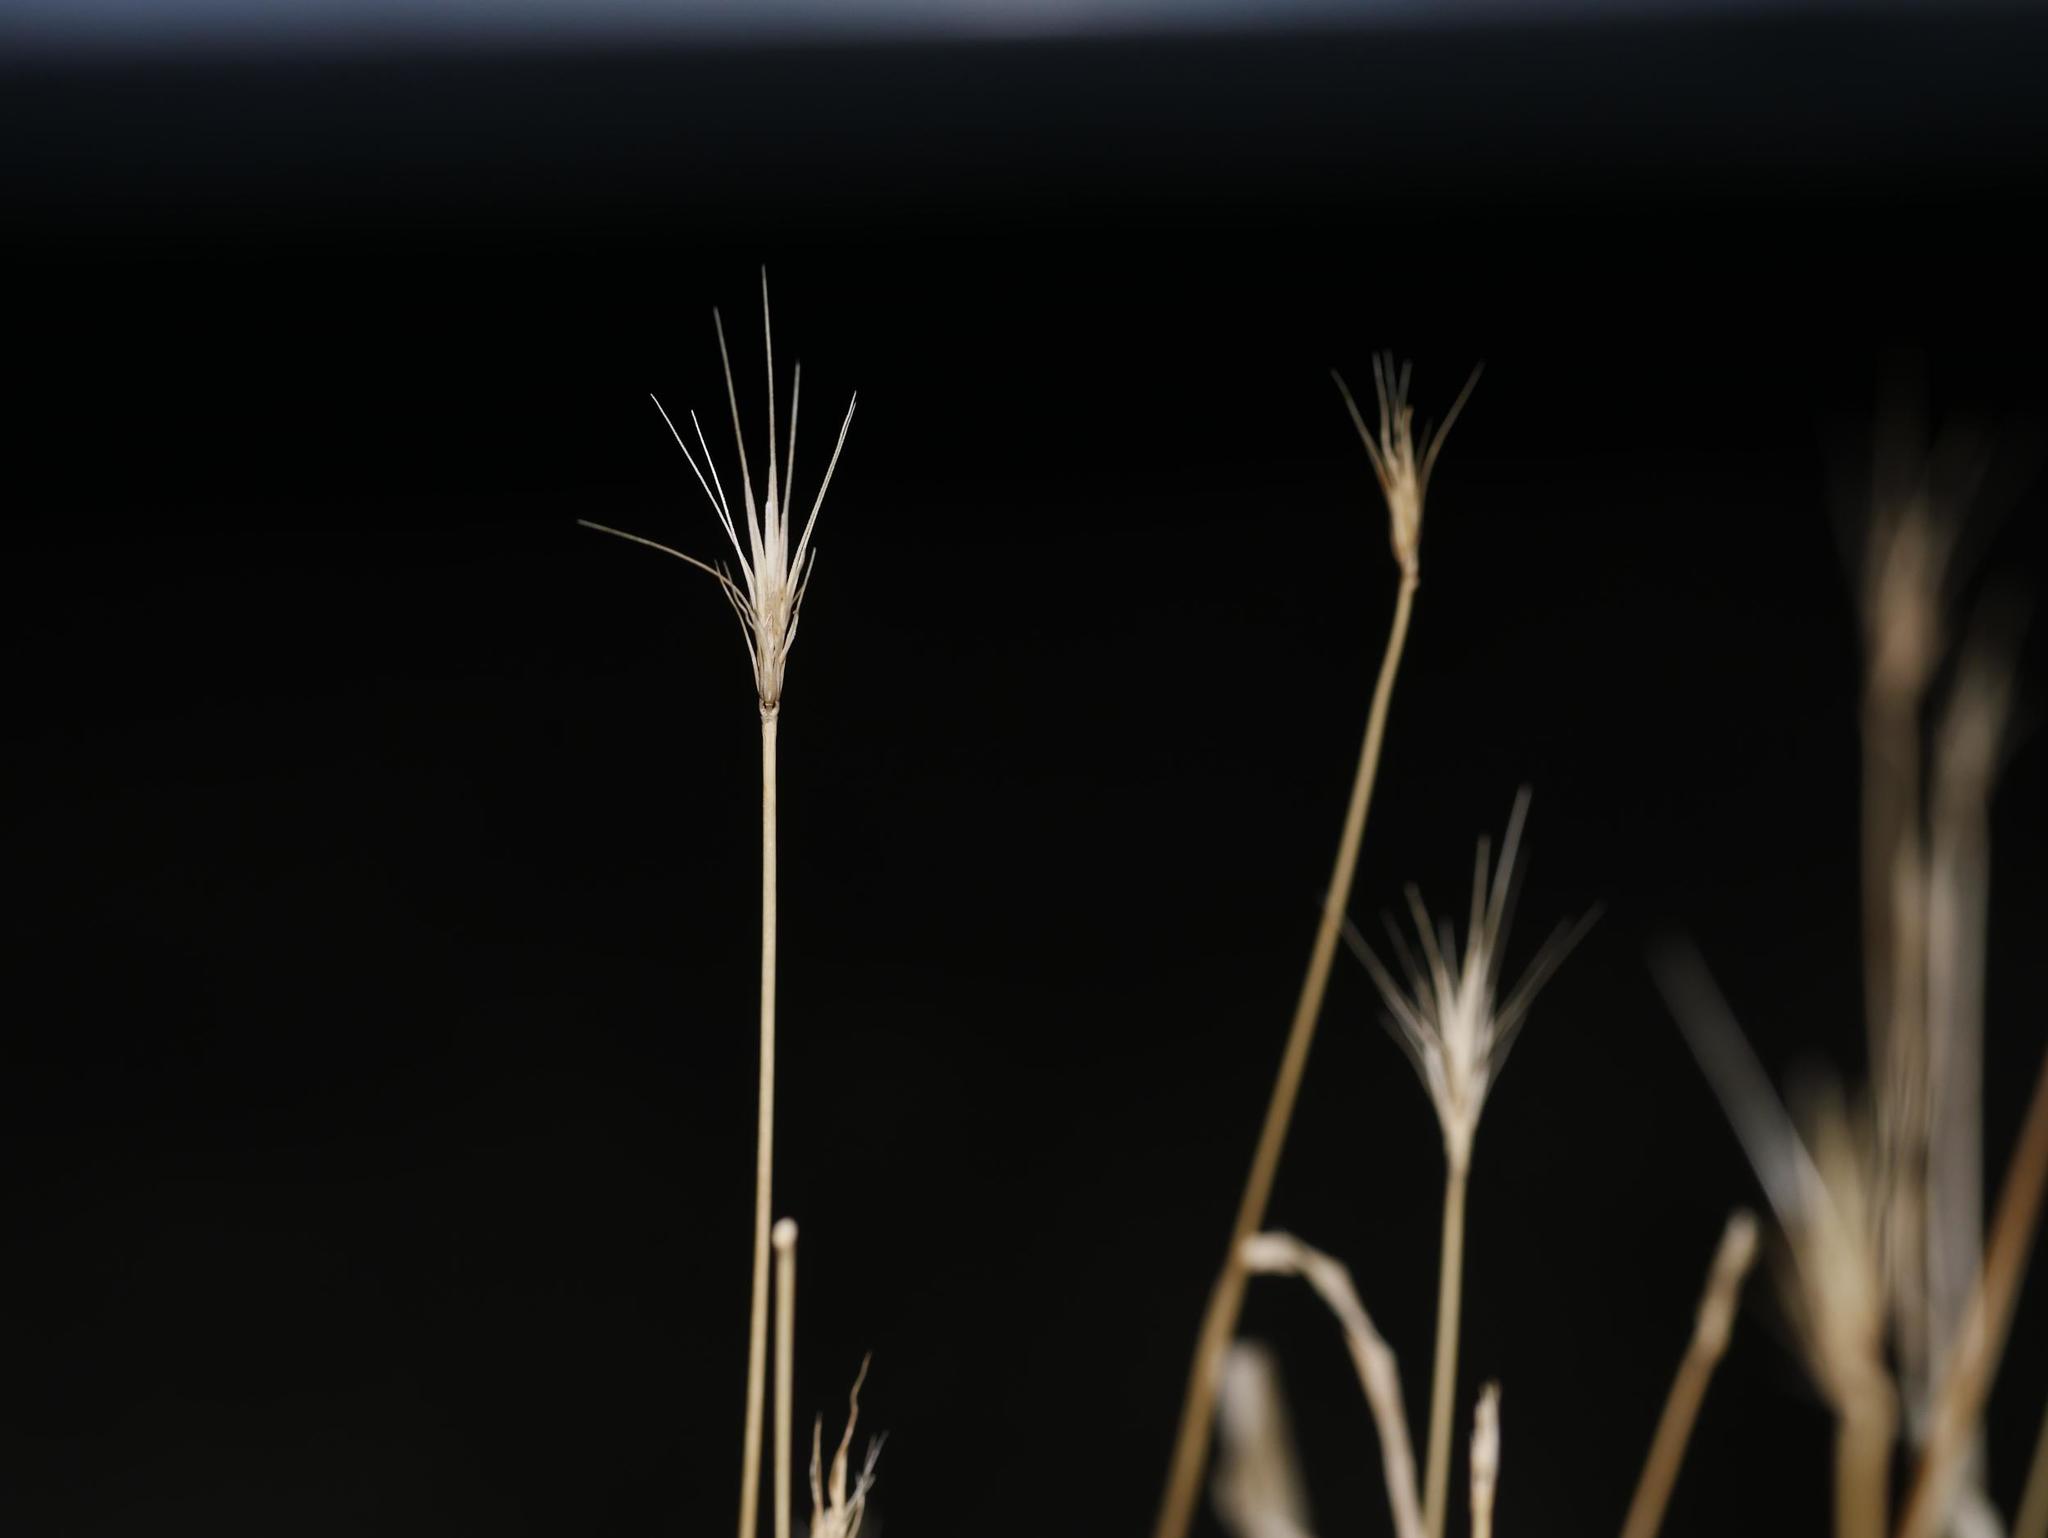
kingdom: Plantae
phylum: Tracheophyta
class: Liliopsida
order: Poales
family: Poaceae
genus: Hordeum
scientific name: Hordeum murinum
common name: Wall barley
